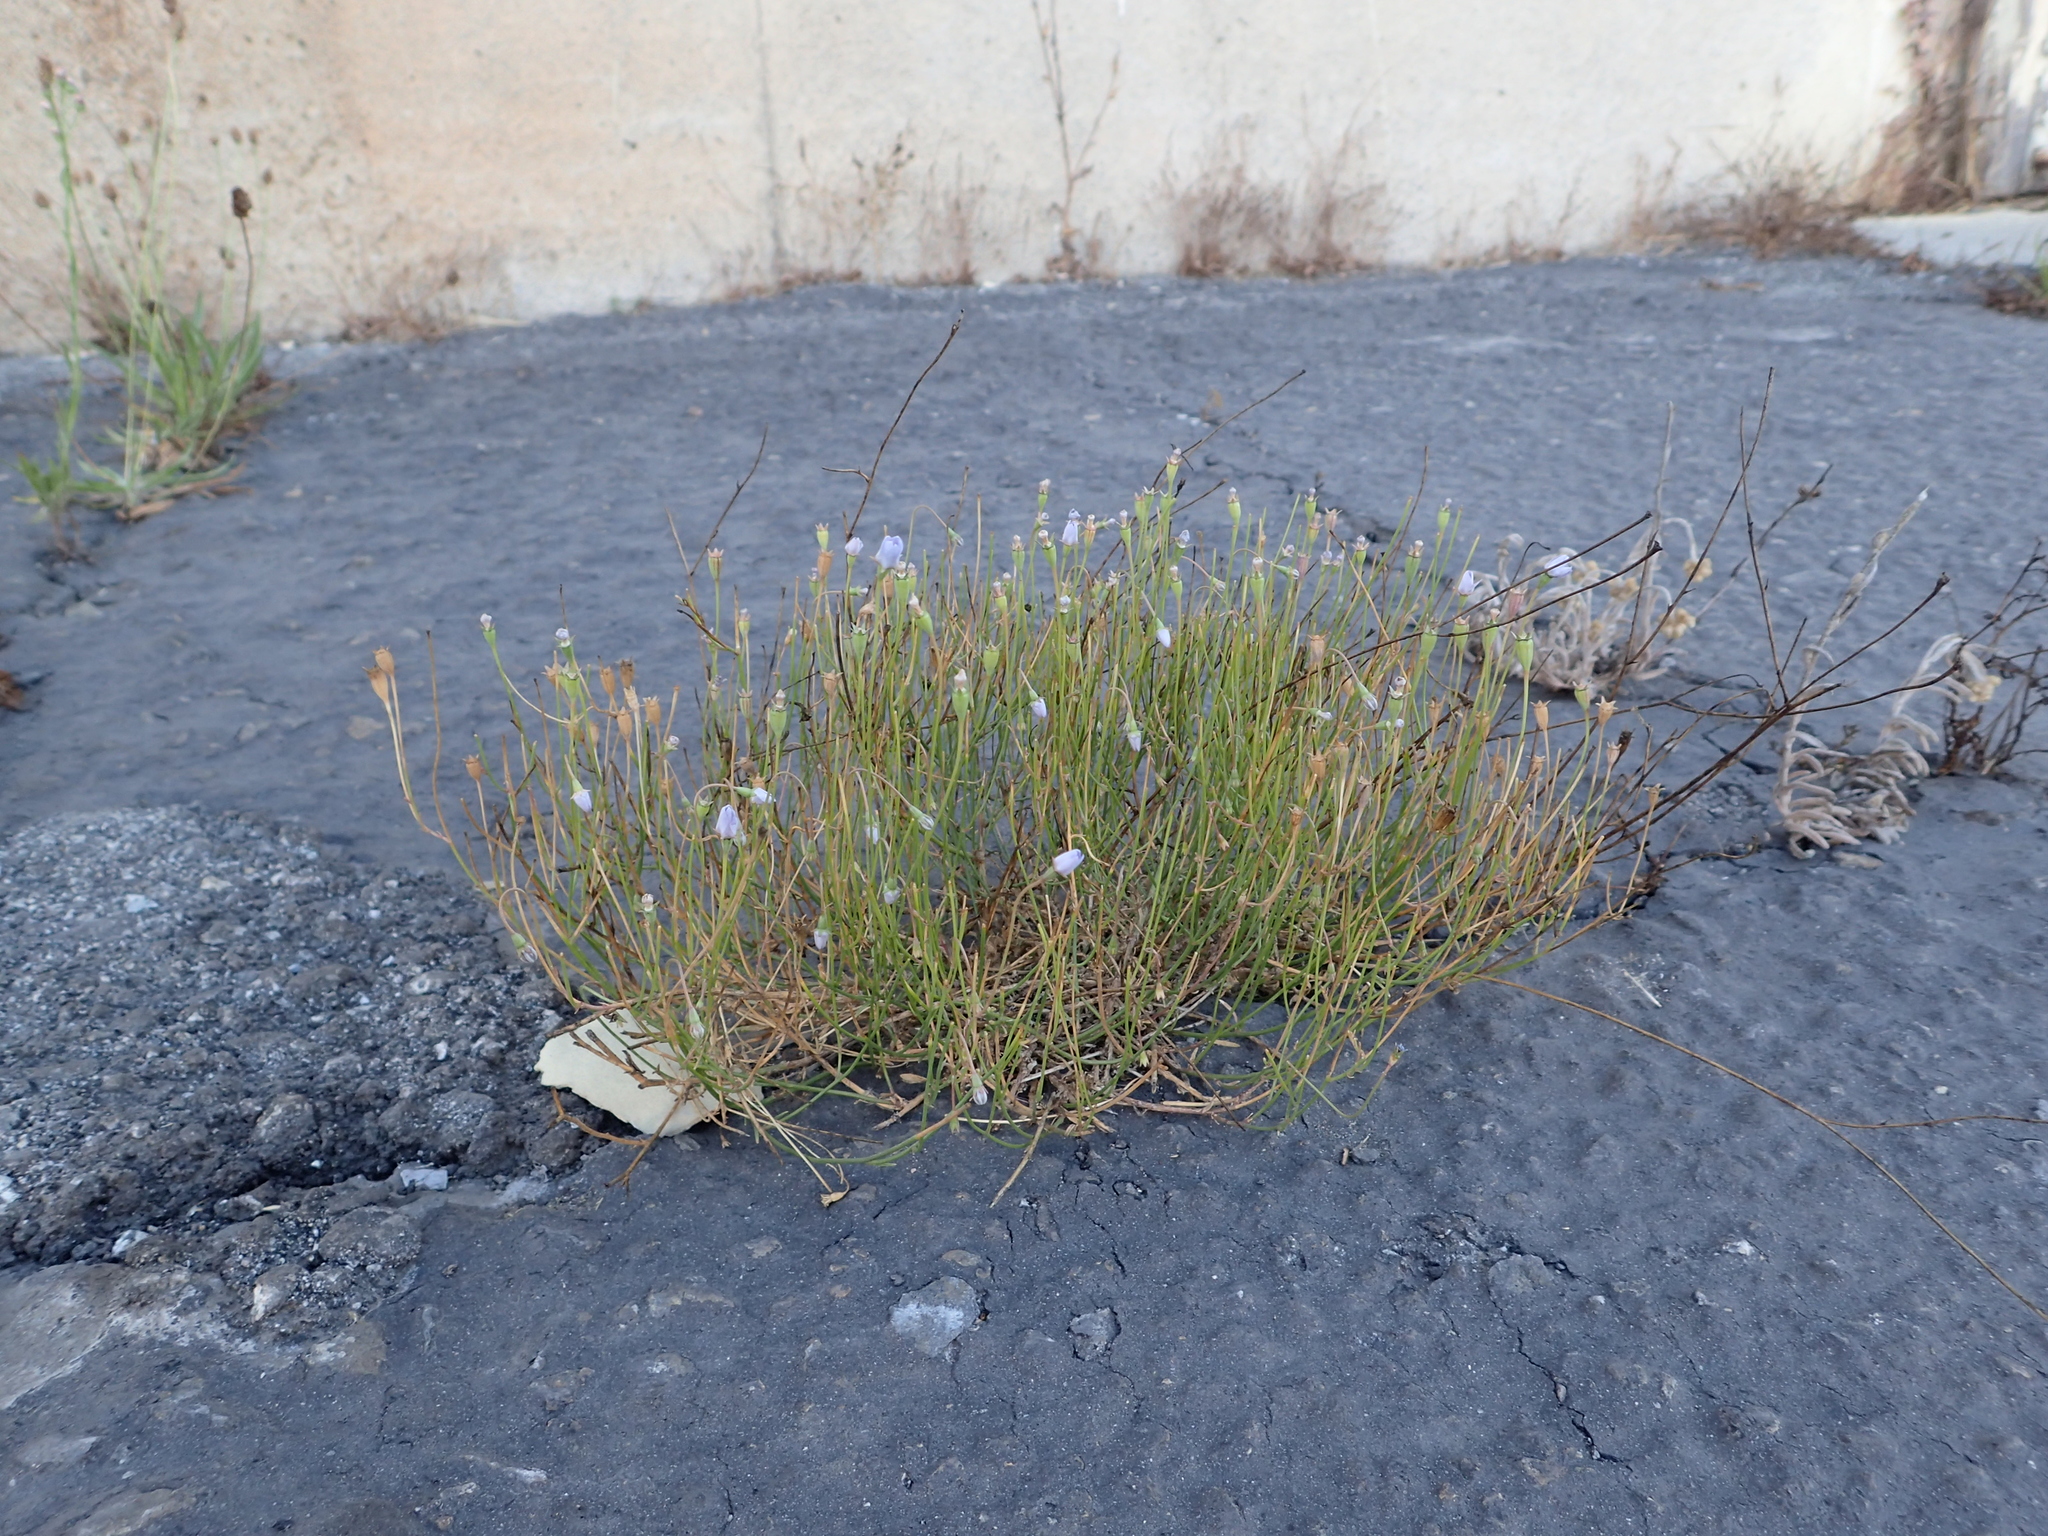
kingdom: Plantae
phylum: Tracheophyta
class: Magnoliopsida
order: Asterales
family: Campanulaceae
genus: Wahlenbergia
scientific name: Wahlenbergia marginata
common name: Southern rockbell
